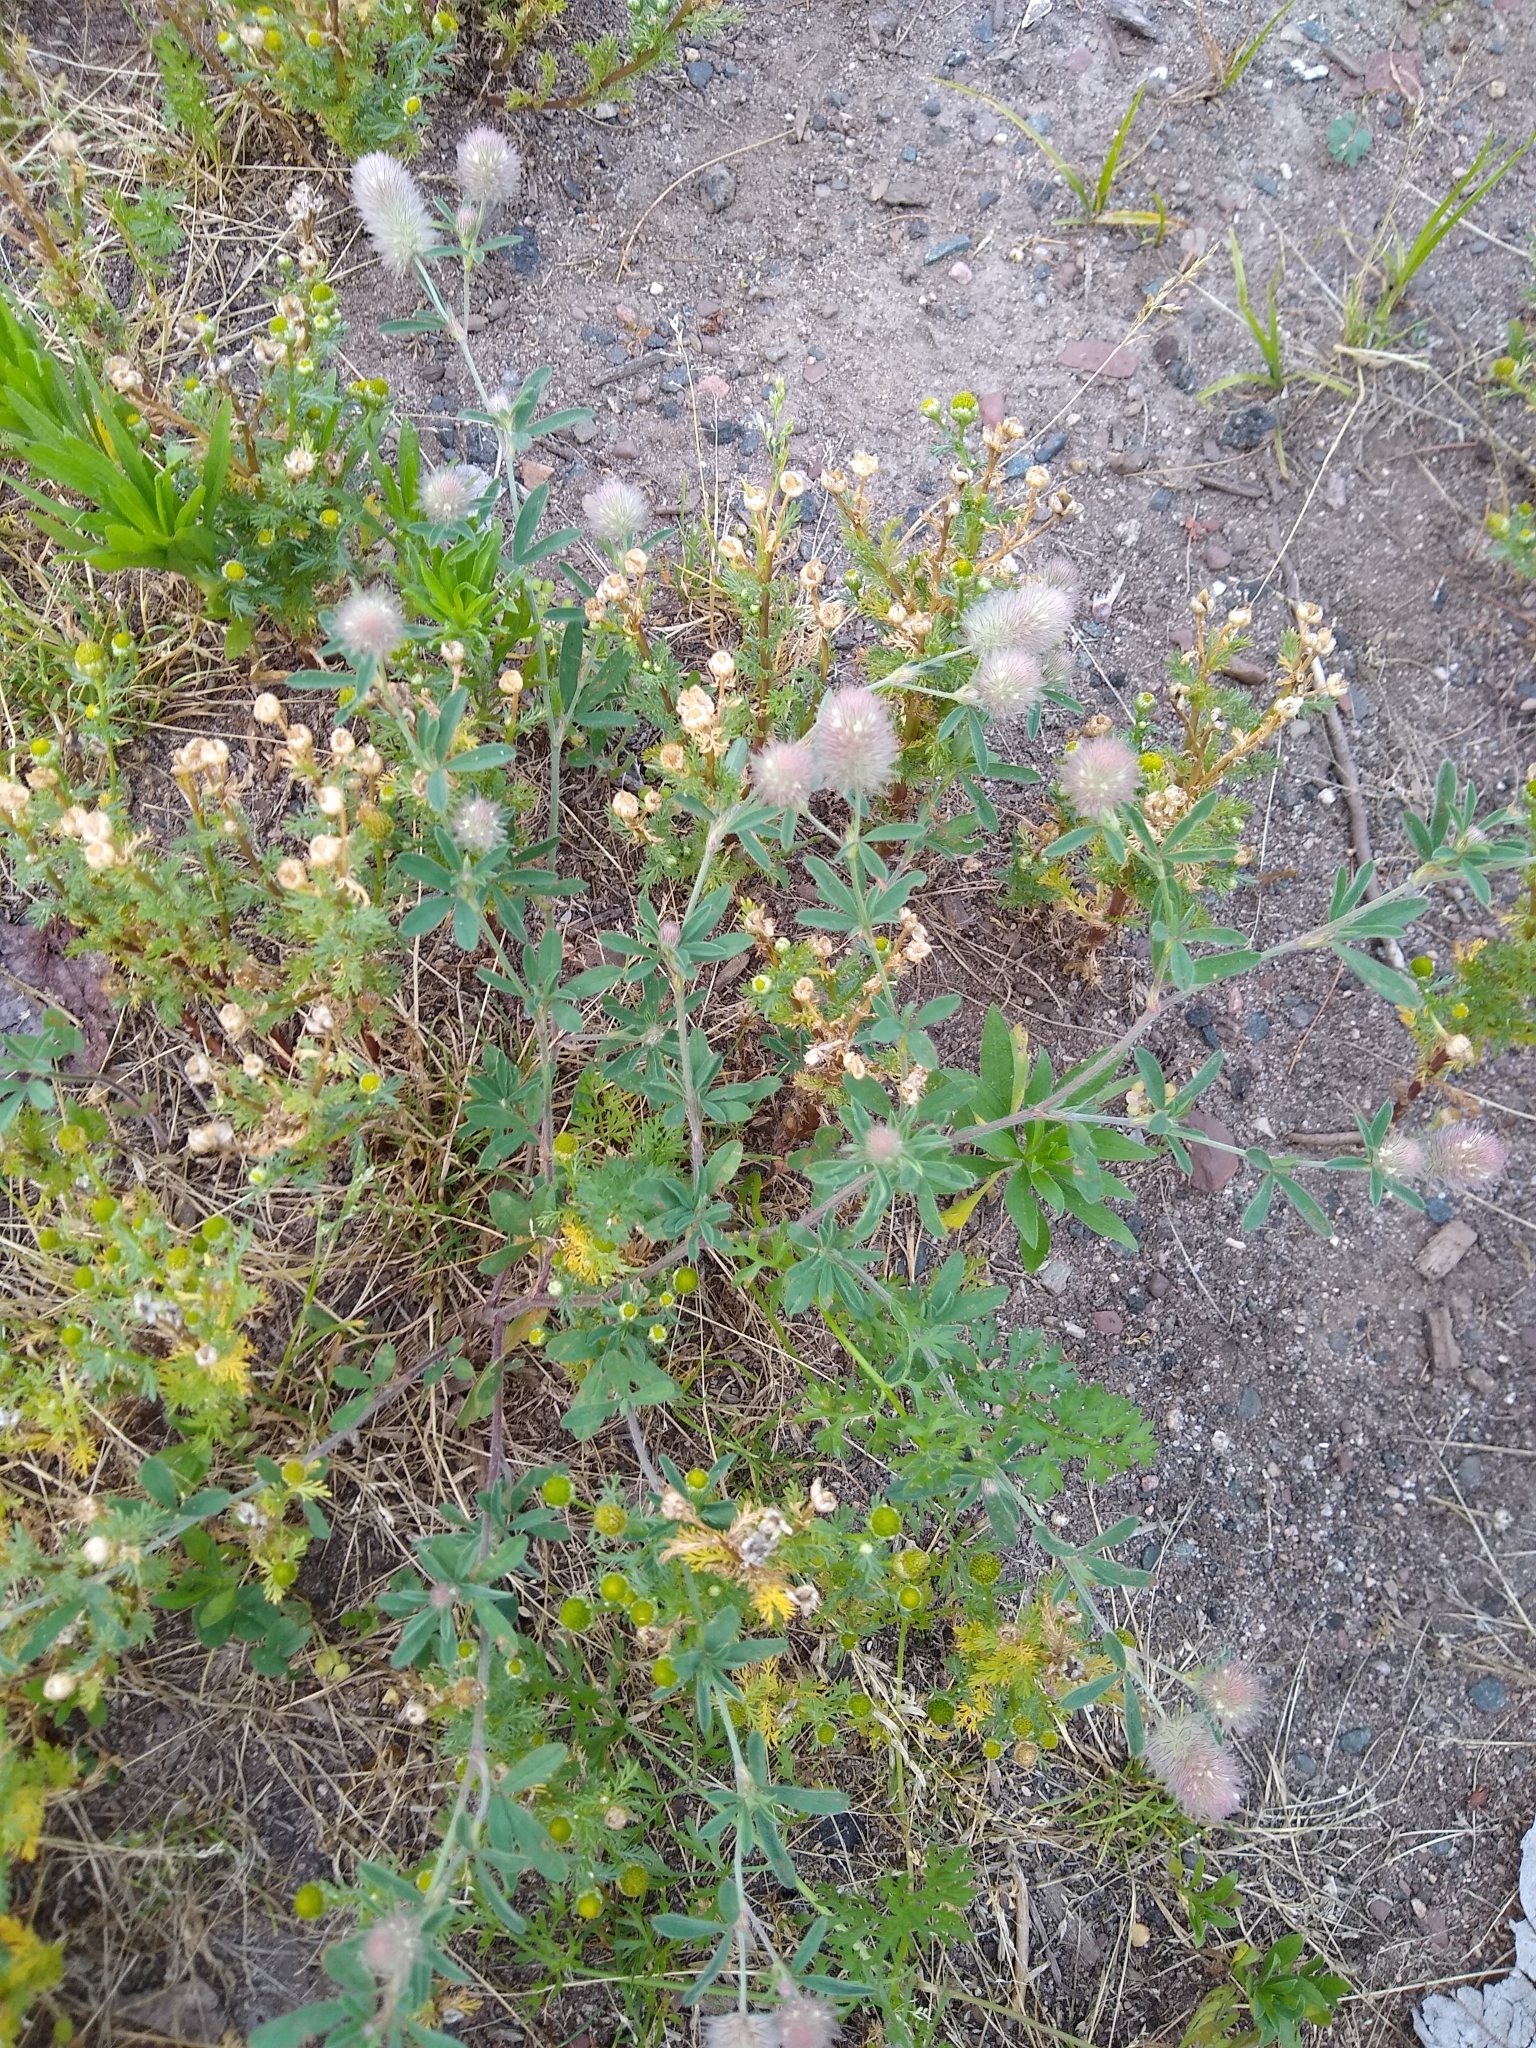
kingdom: Plantae
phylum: Tracheophyta
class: Magnoliopsida
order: Fabales
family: Fabaceae
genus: Trifolium
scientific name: Trifolium arvense
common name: Hare's-foot clover
